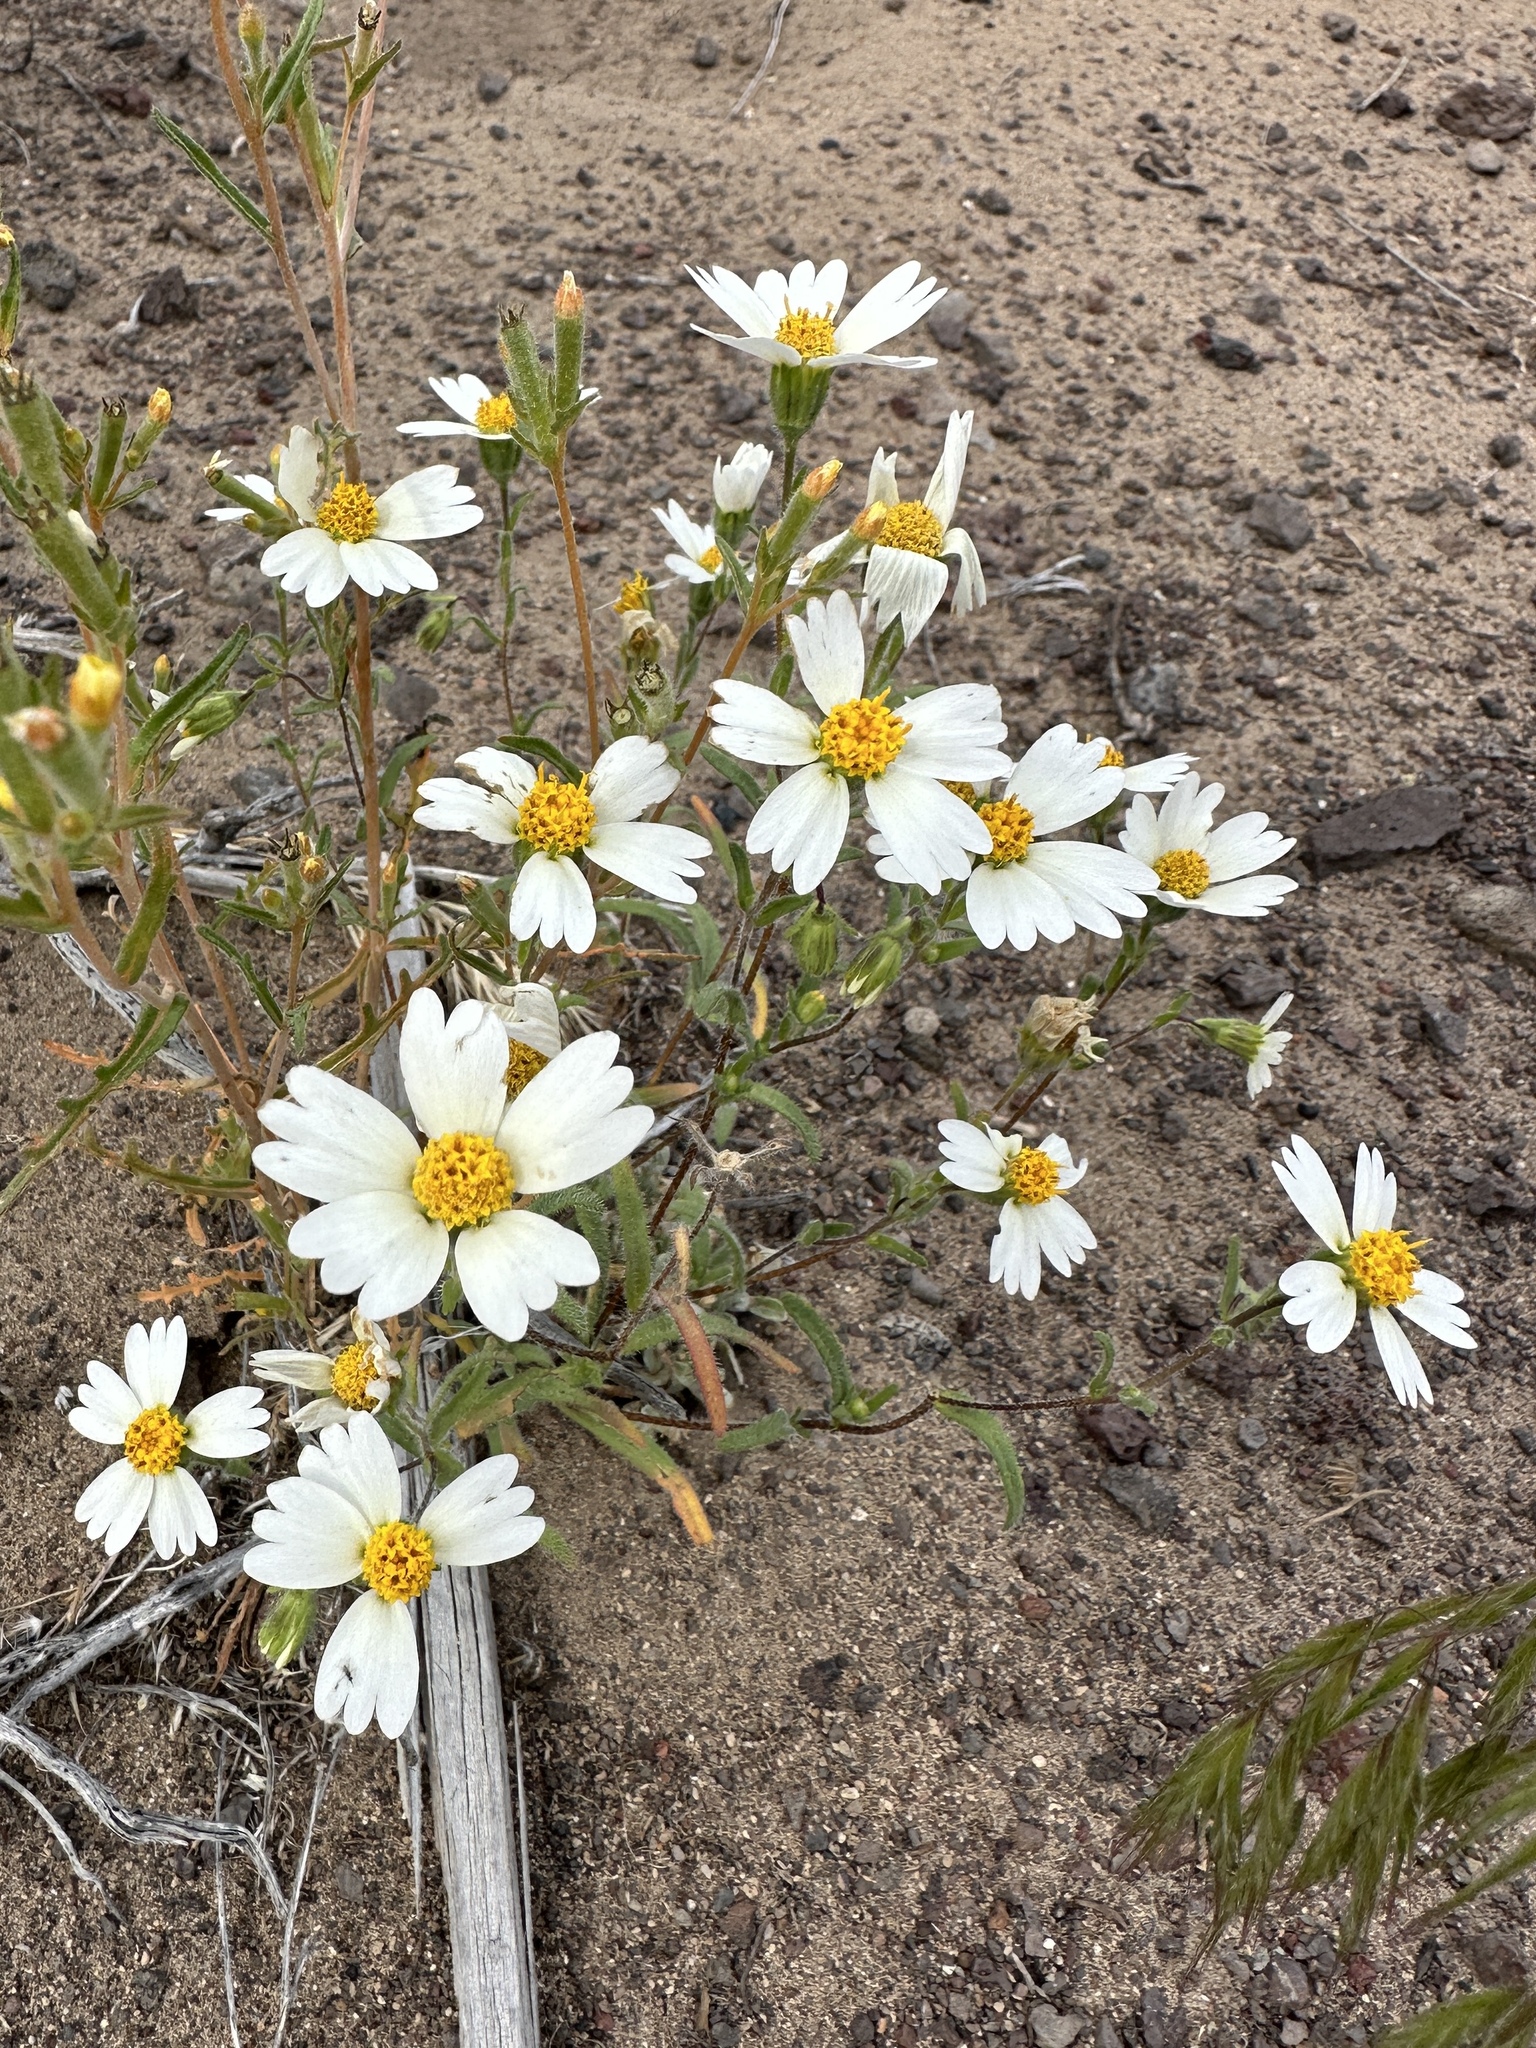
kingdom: Plantae
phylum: Tracheophyta
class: Magnoliopsida
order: Asterales
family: Asteraceae
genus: Layia
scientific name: Layia glandulosa
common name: White layia
